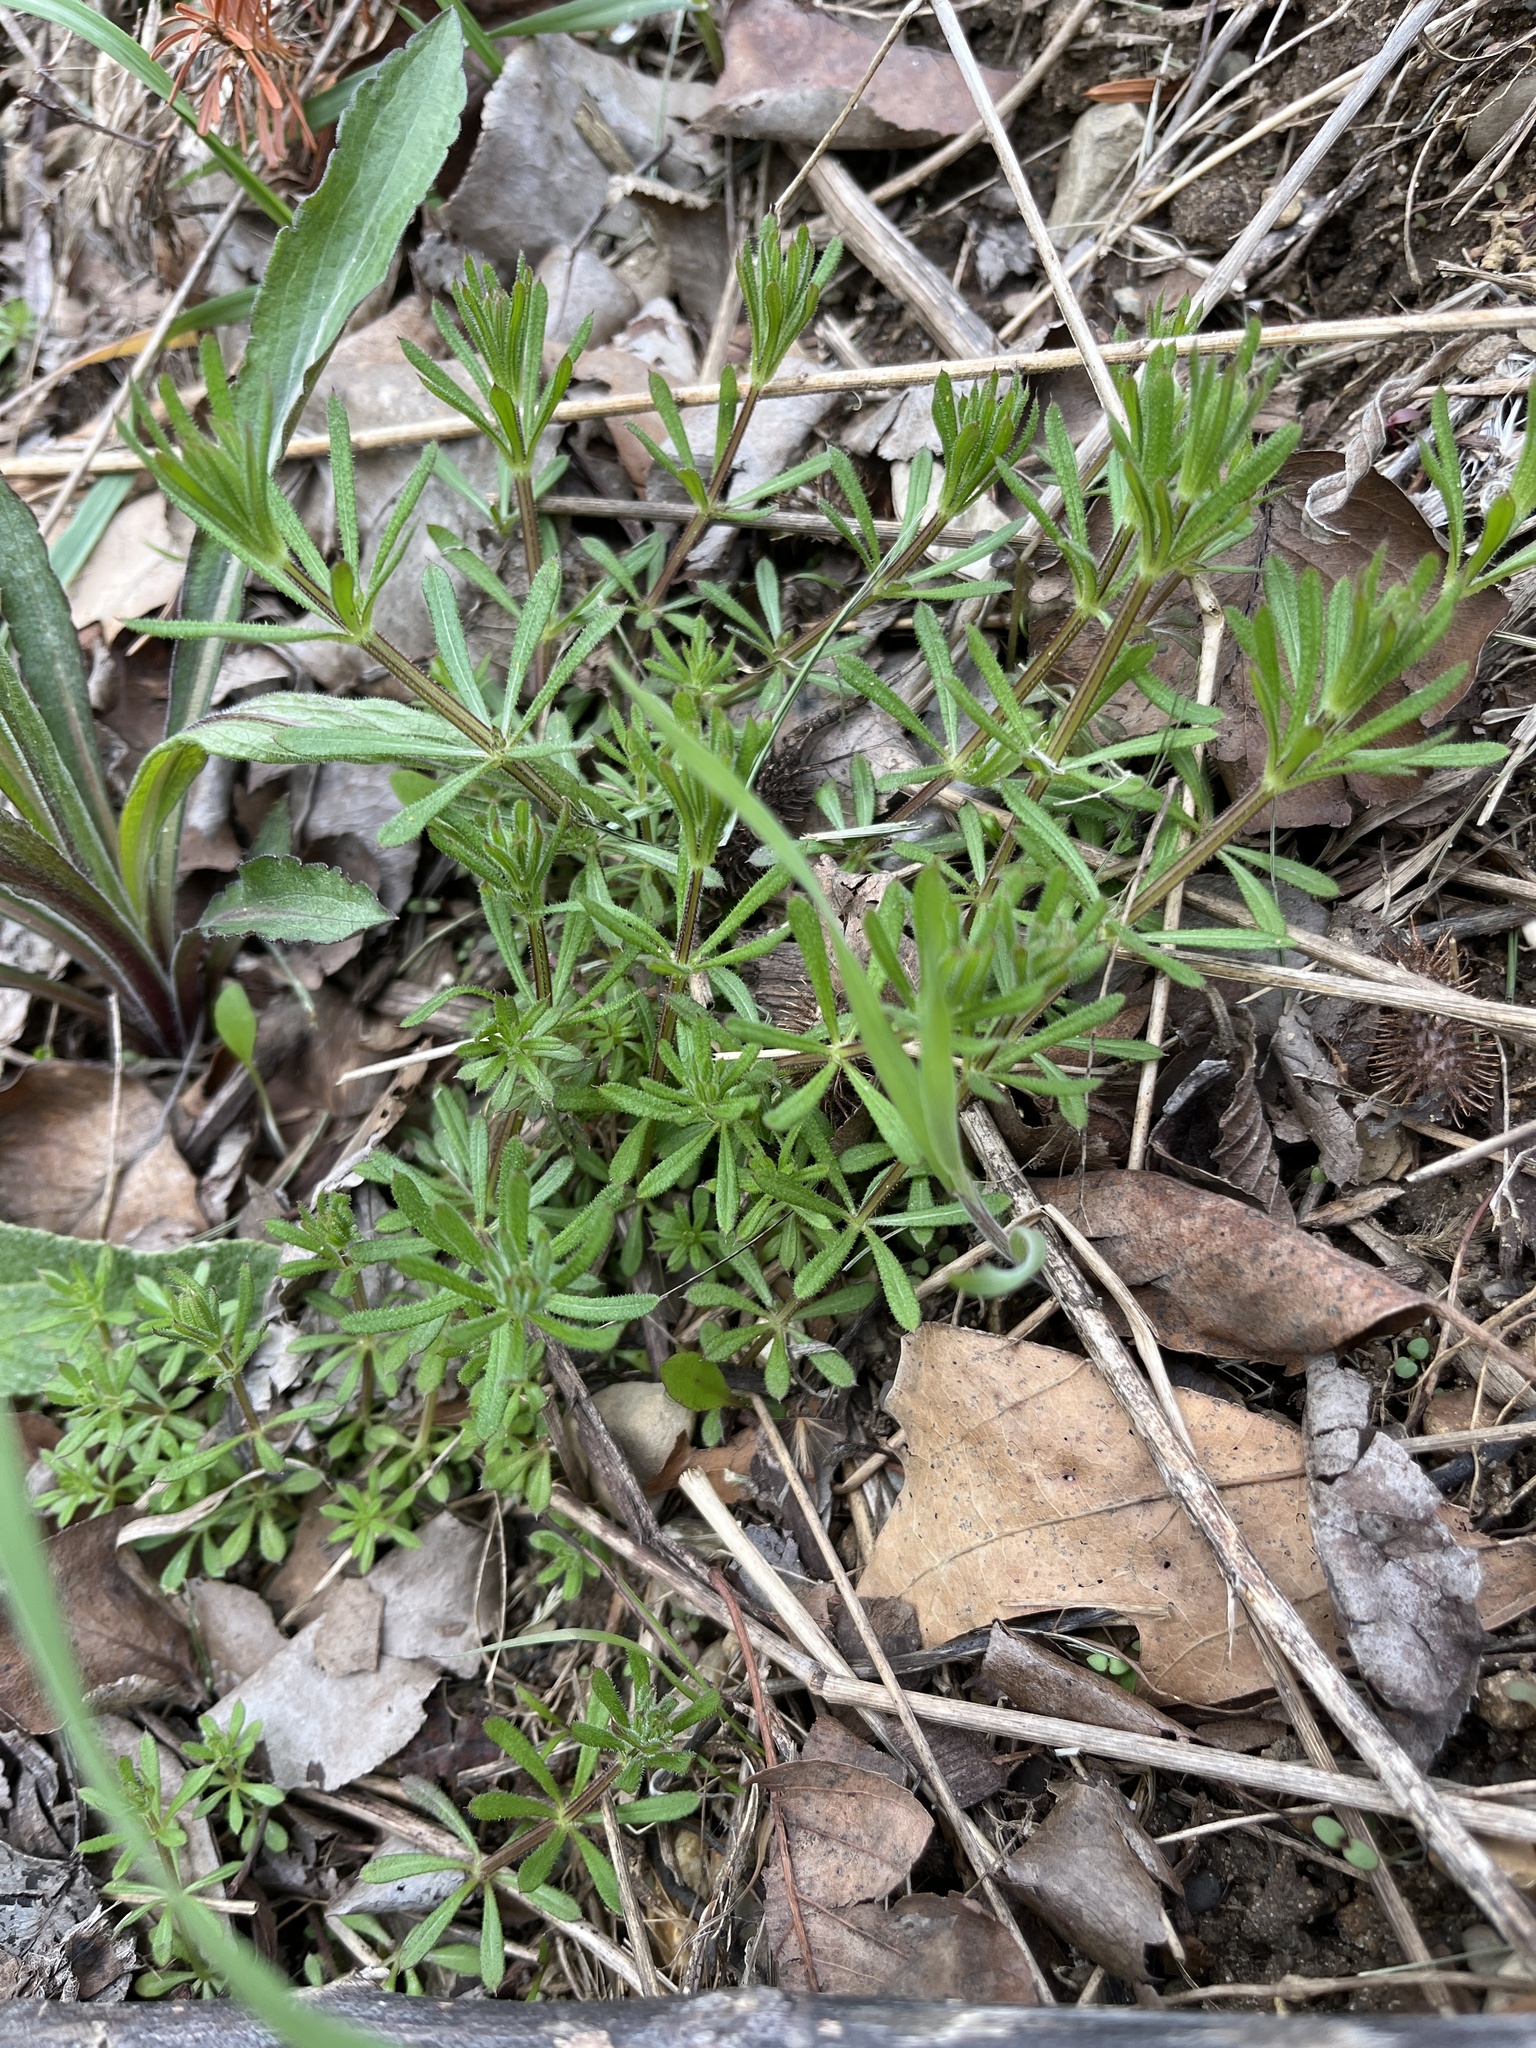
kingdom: Plantae
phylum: Tracheophyta
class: Magnoliopsida
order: Gentianales
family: Rubiaceae
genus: Galium
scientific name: Galium aparine
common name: Cleavers
